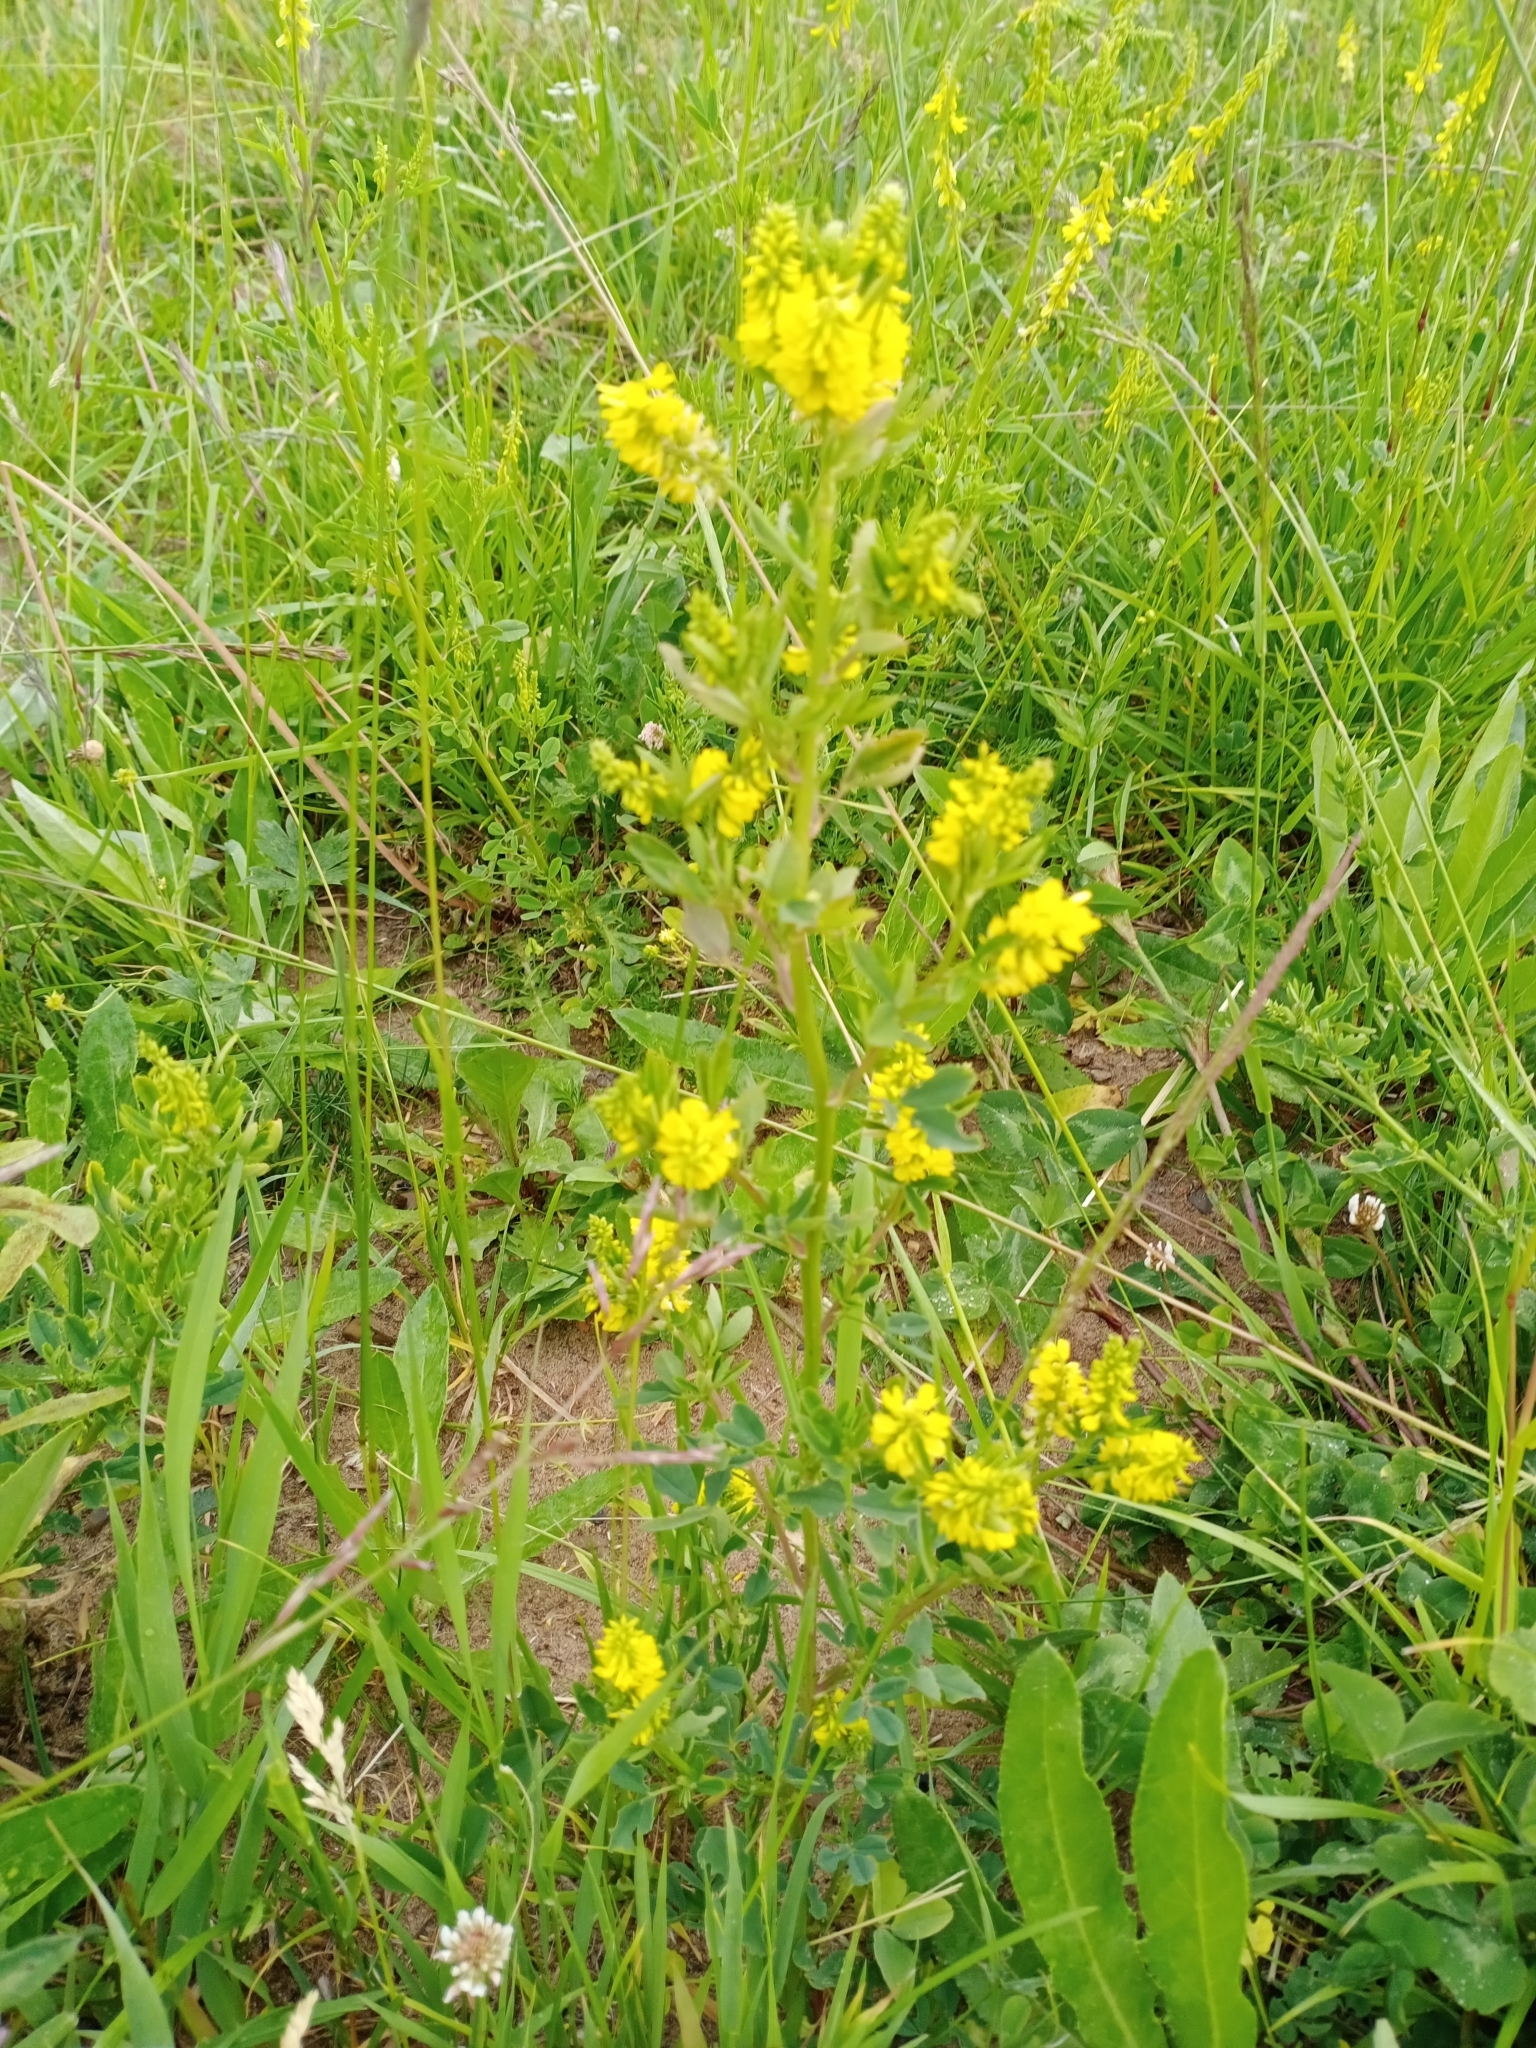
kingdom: Plantae
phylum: Tracheophyta
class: Magnoliopsida
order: Fabales
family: Fabaceae
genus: Melilotus
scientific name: Melilotus officinalis
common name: Sweetclover
